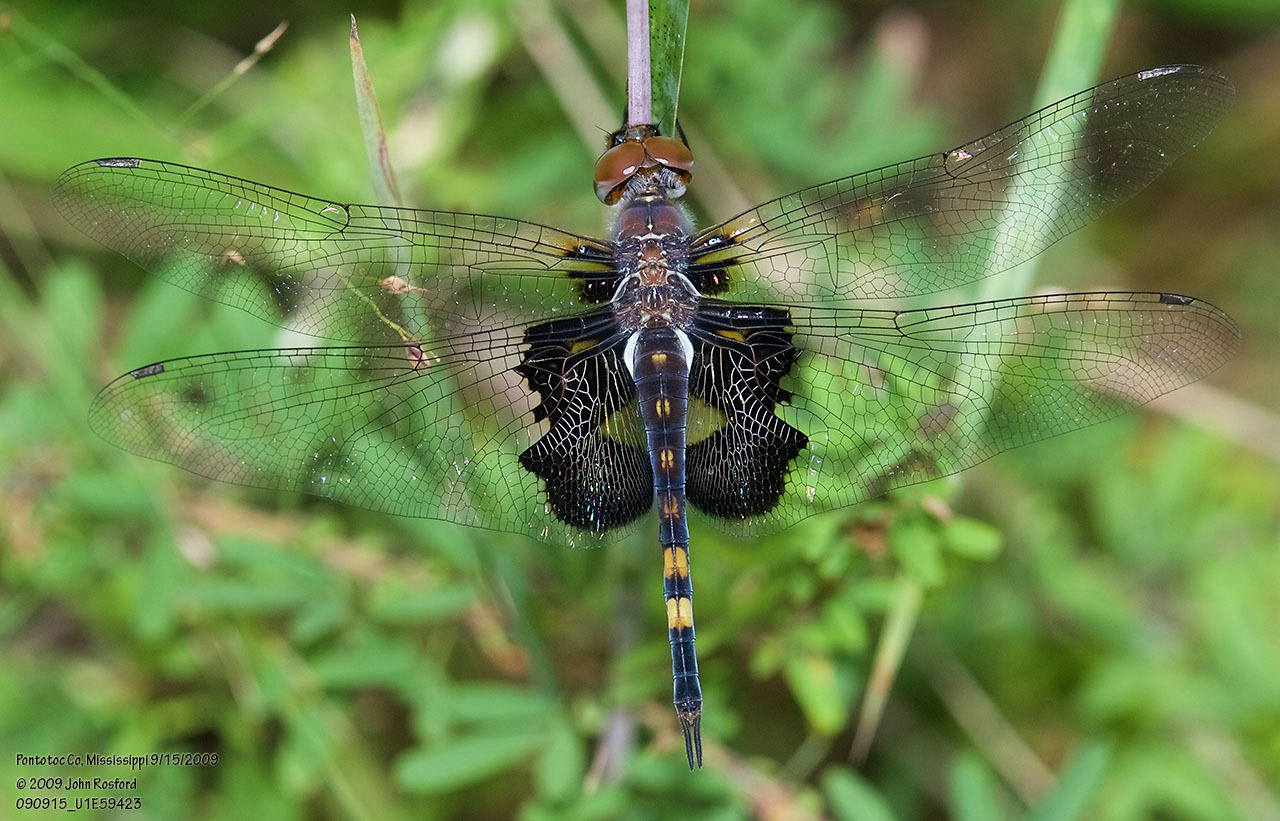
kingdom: Animalia
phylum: Arthropoda
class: Insecta
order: Odonata
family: Libellulidae
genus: Tramea
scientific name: Tramea lacerata
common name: Black saddlebags
